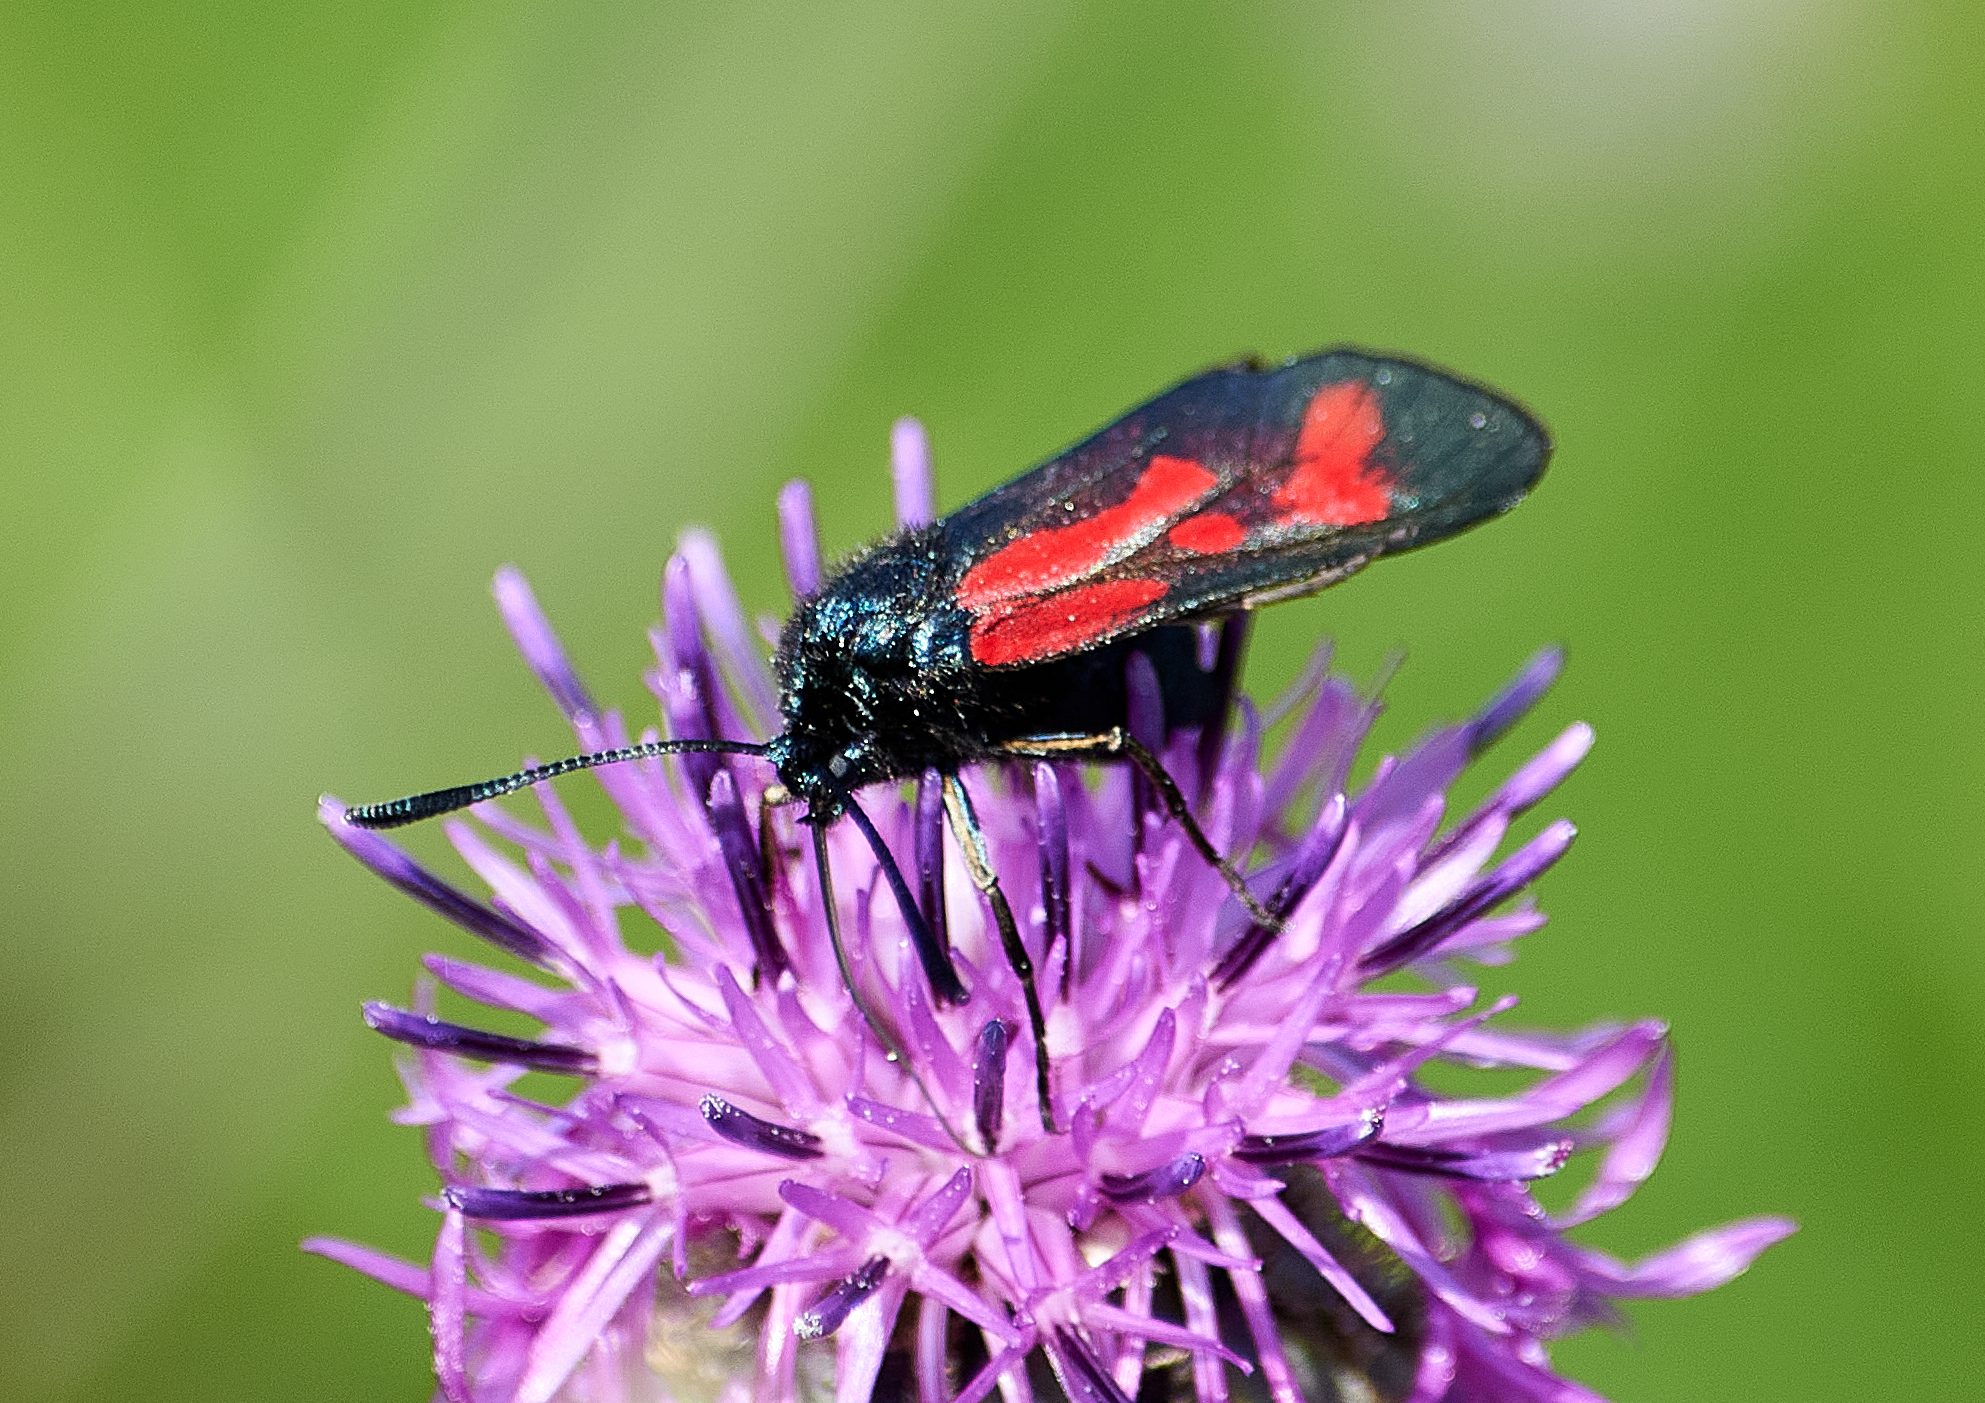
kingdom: Animalia
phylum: Arthropoda
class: Insecta
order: Lepidoptera
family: Zygaenidae
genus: Zygaena
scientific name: Zygaena minos
